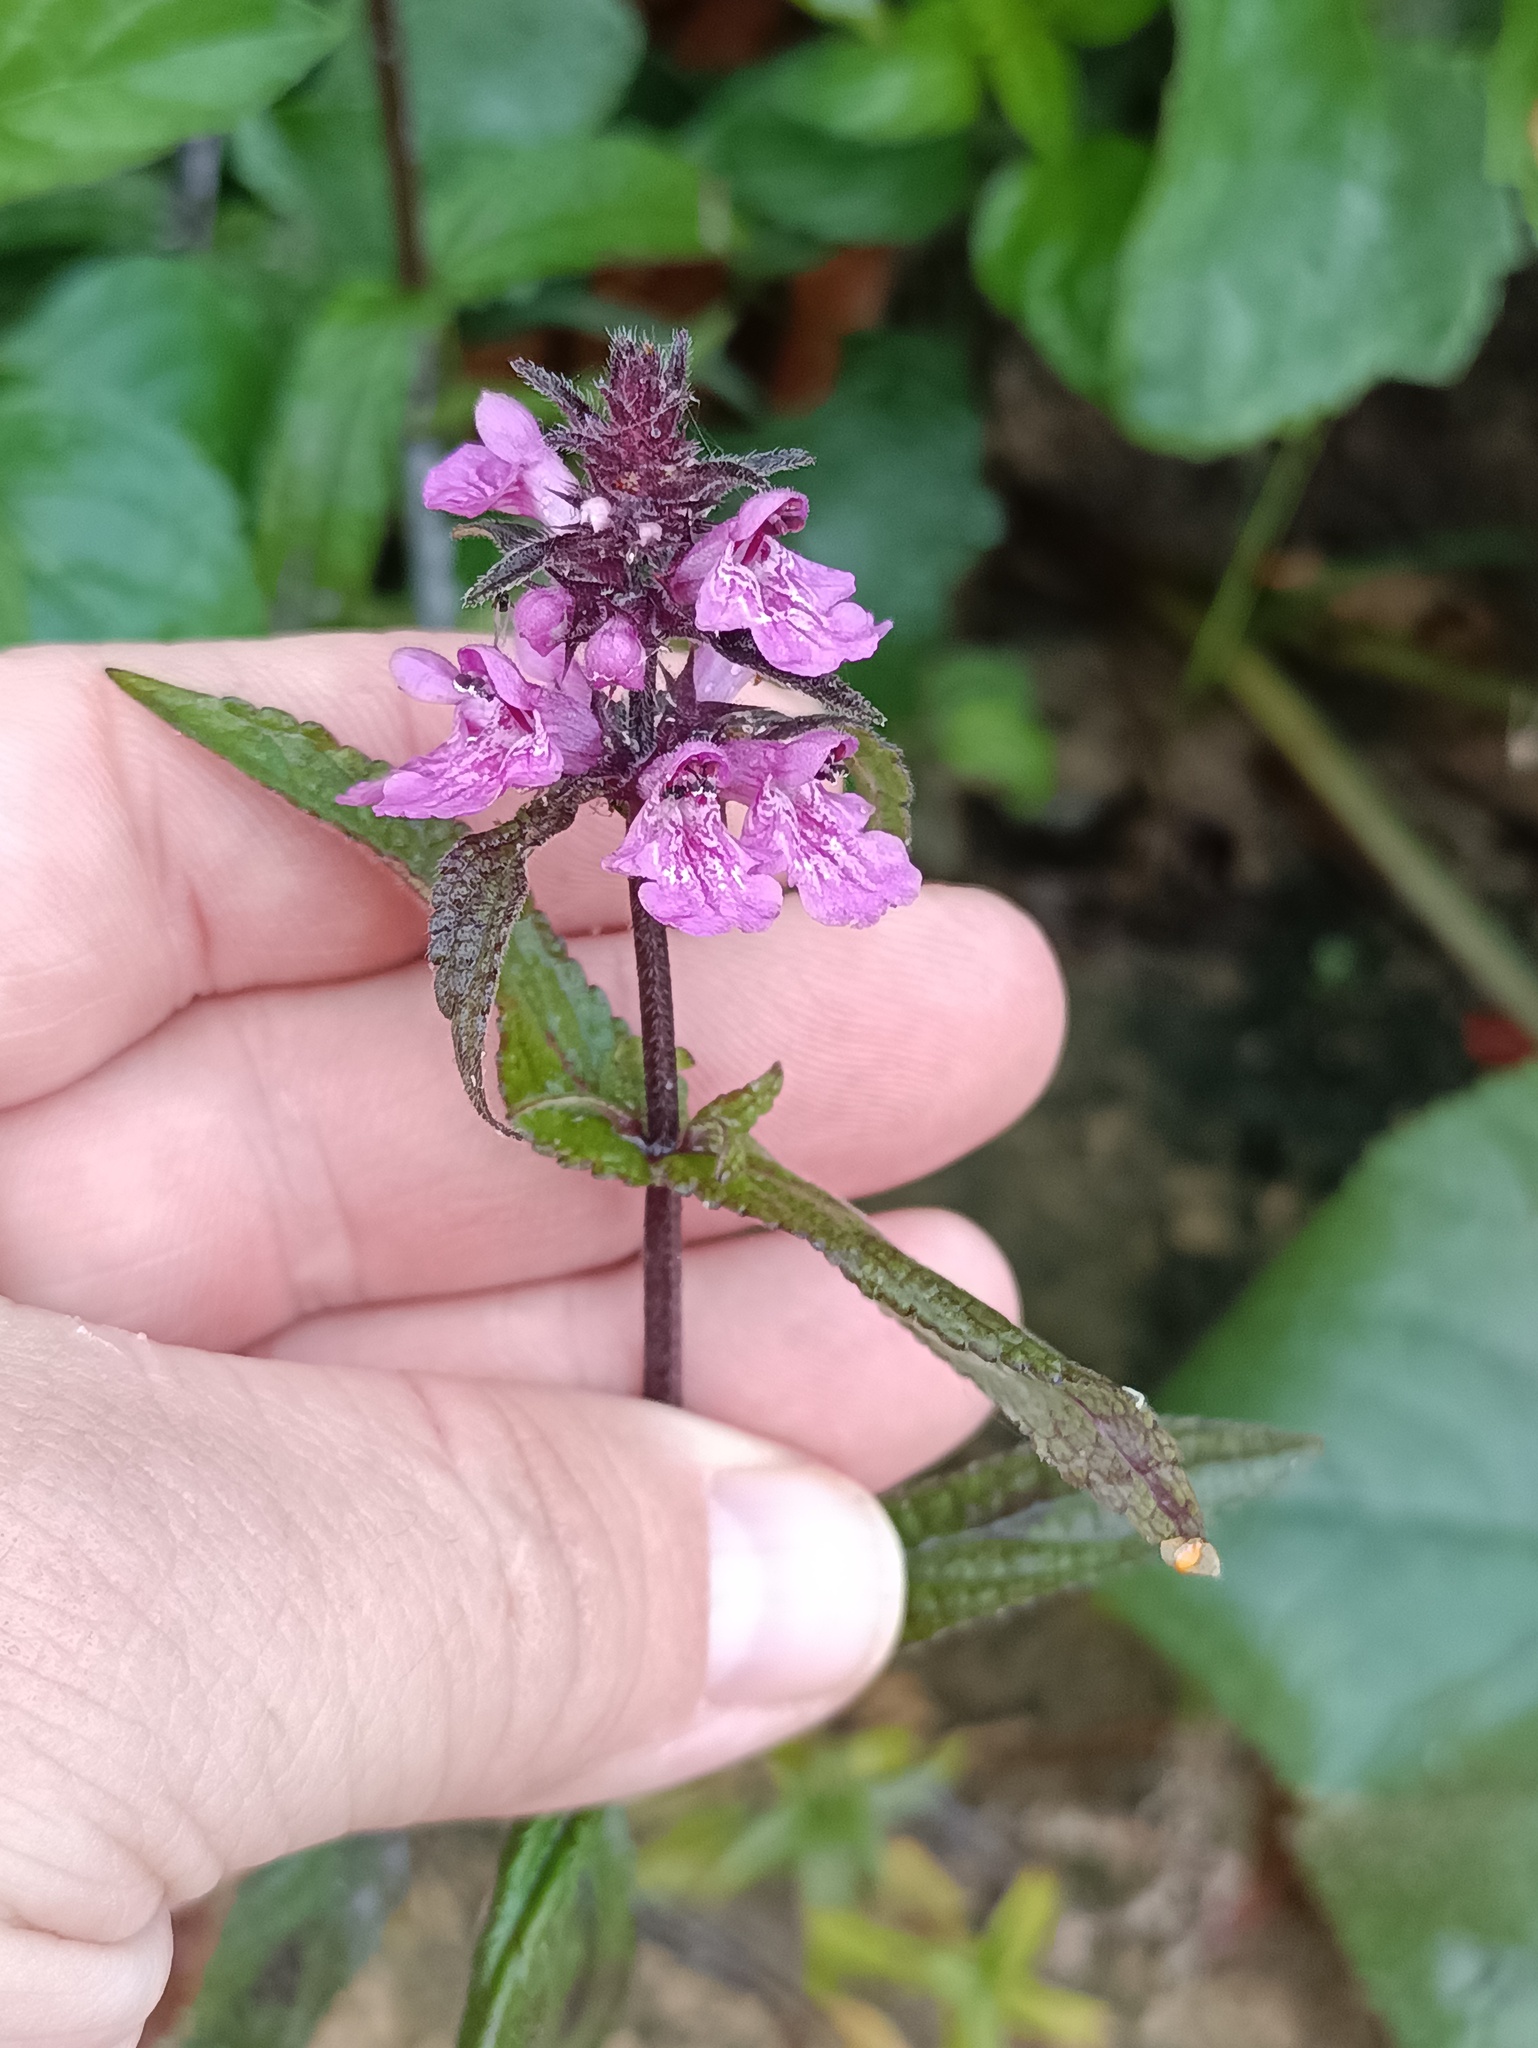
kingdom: Plantae
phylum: Tracheophyta
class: Magnoliopsida
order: Lamiales
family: Lamiaceae
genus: Stachys
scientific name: Stachys palustris
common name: Marsh woundwort
